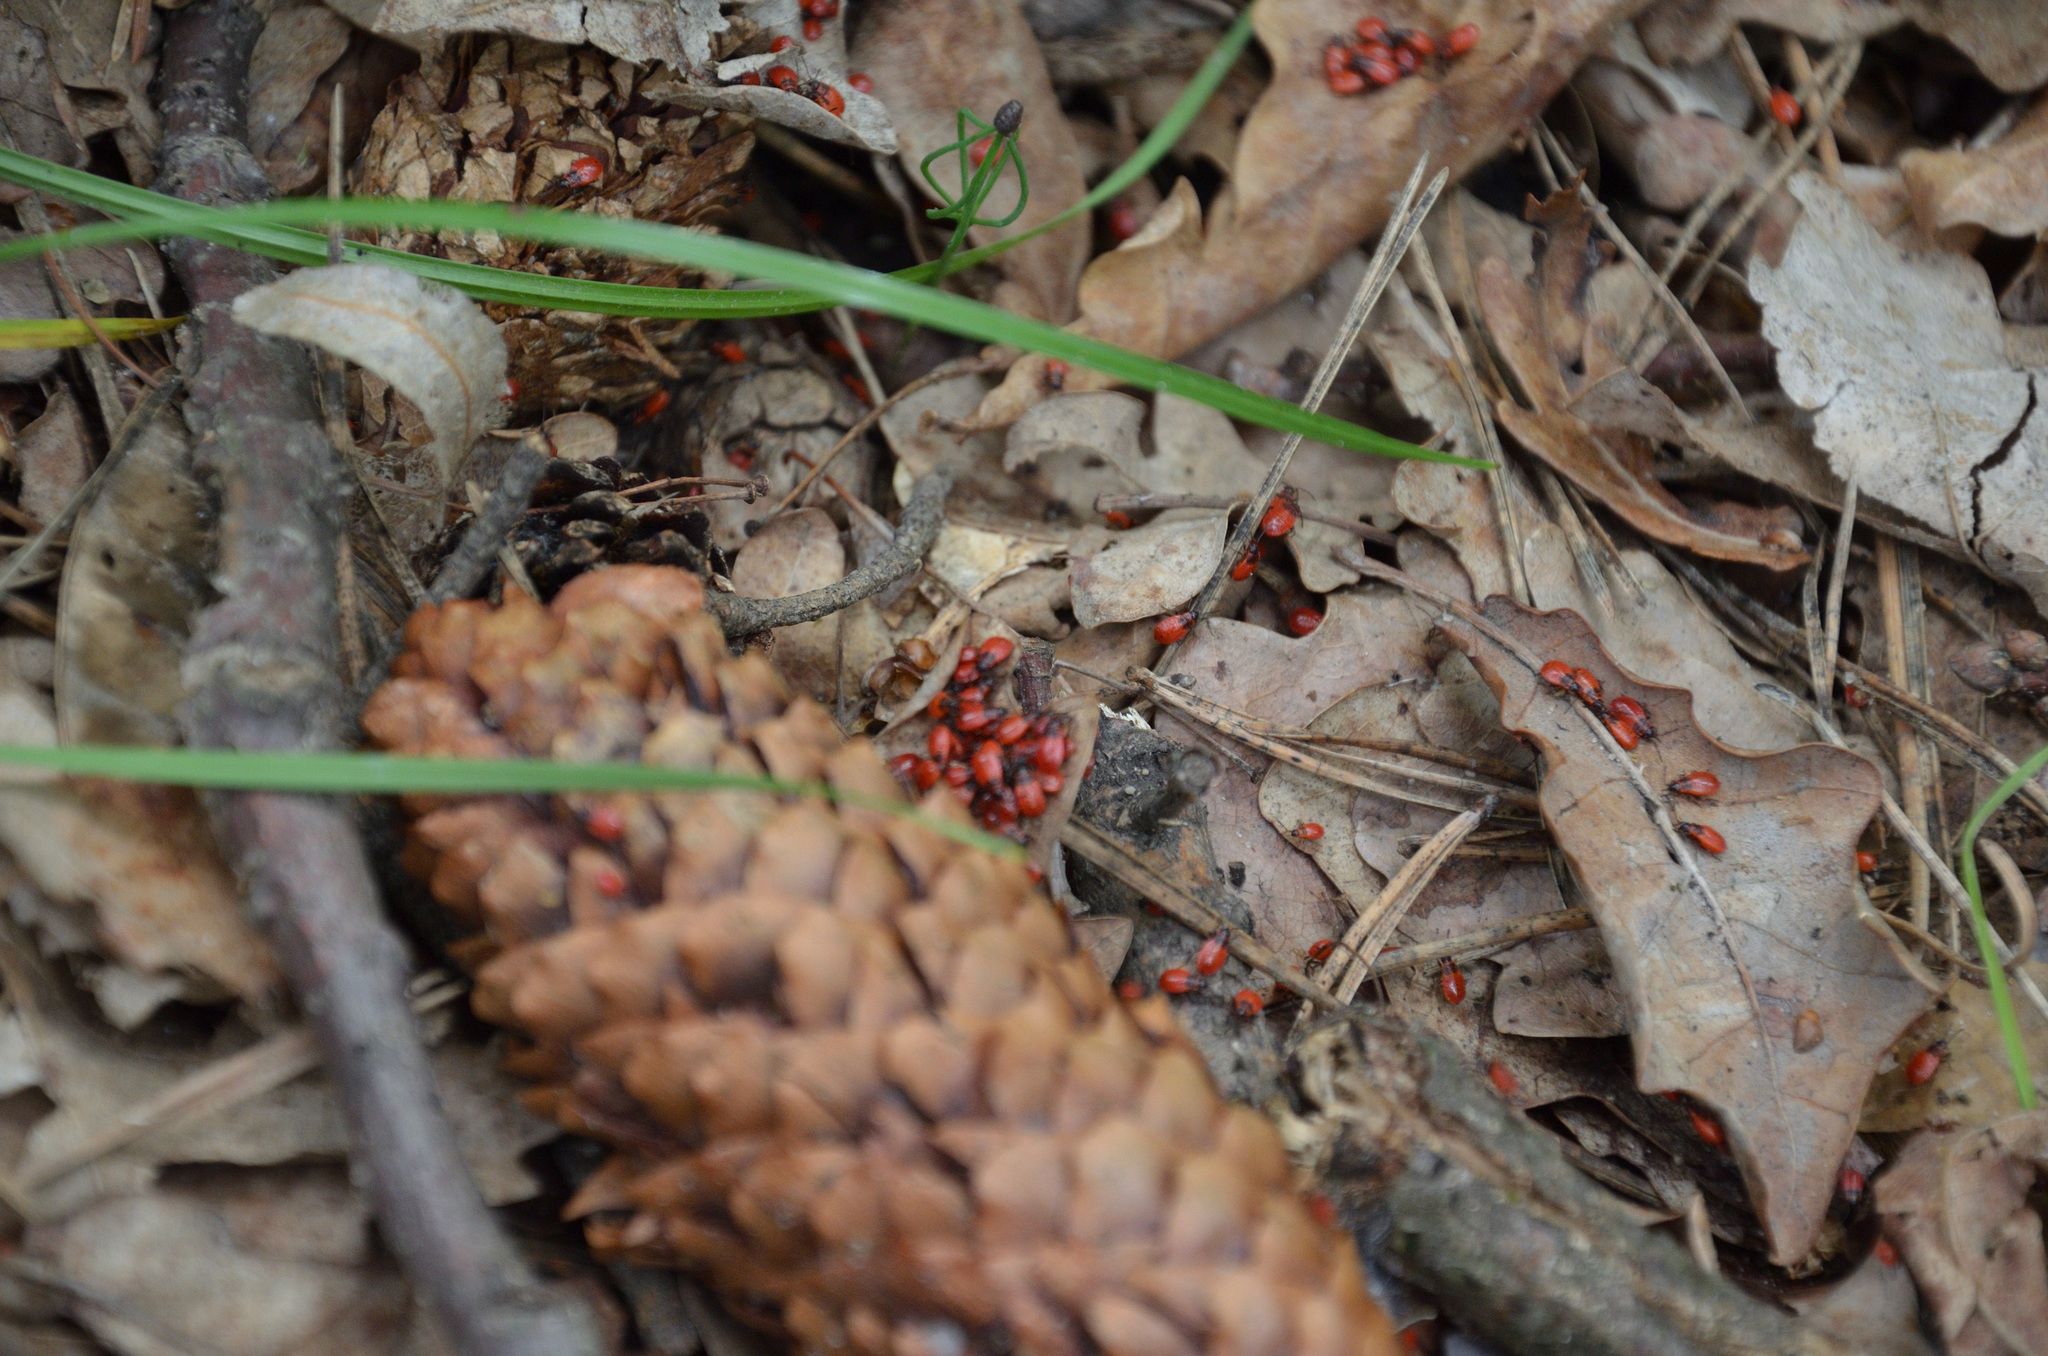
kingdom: Animalia
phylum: Arthropoda
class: Insecta
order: Hemiptera
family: Pyrrhocoridae
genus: Pyrrhocoris
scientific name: Pyrrhocoris apterus
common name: Firebug
